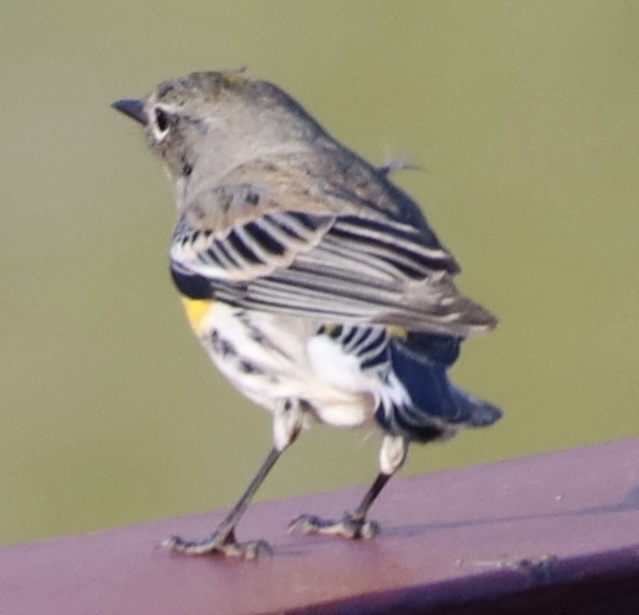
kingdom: Animalia
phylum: Chordata
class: Aves
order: Passeriformes
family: Parulidae
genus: Setophaga
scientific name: Setophaga coronata
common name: Myrtle warbler
